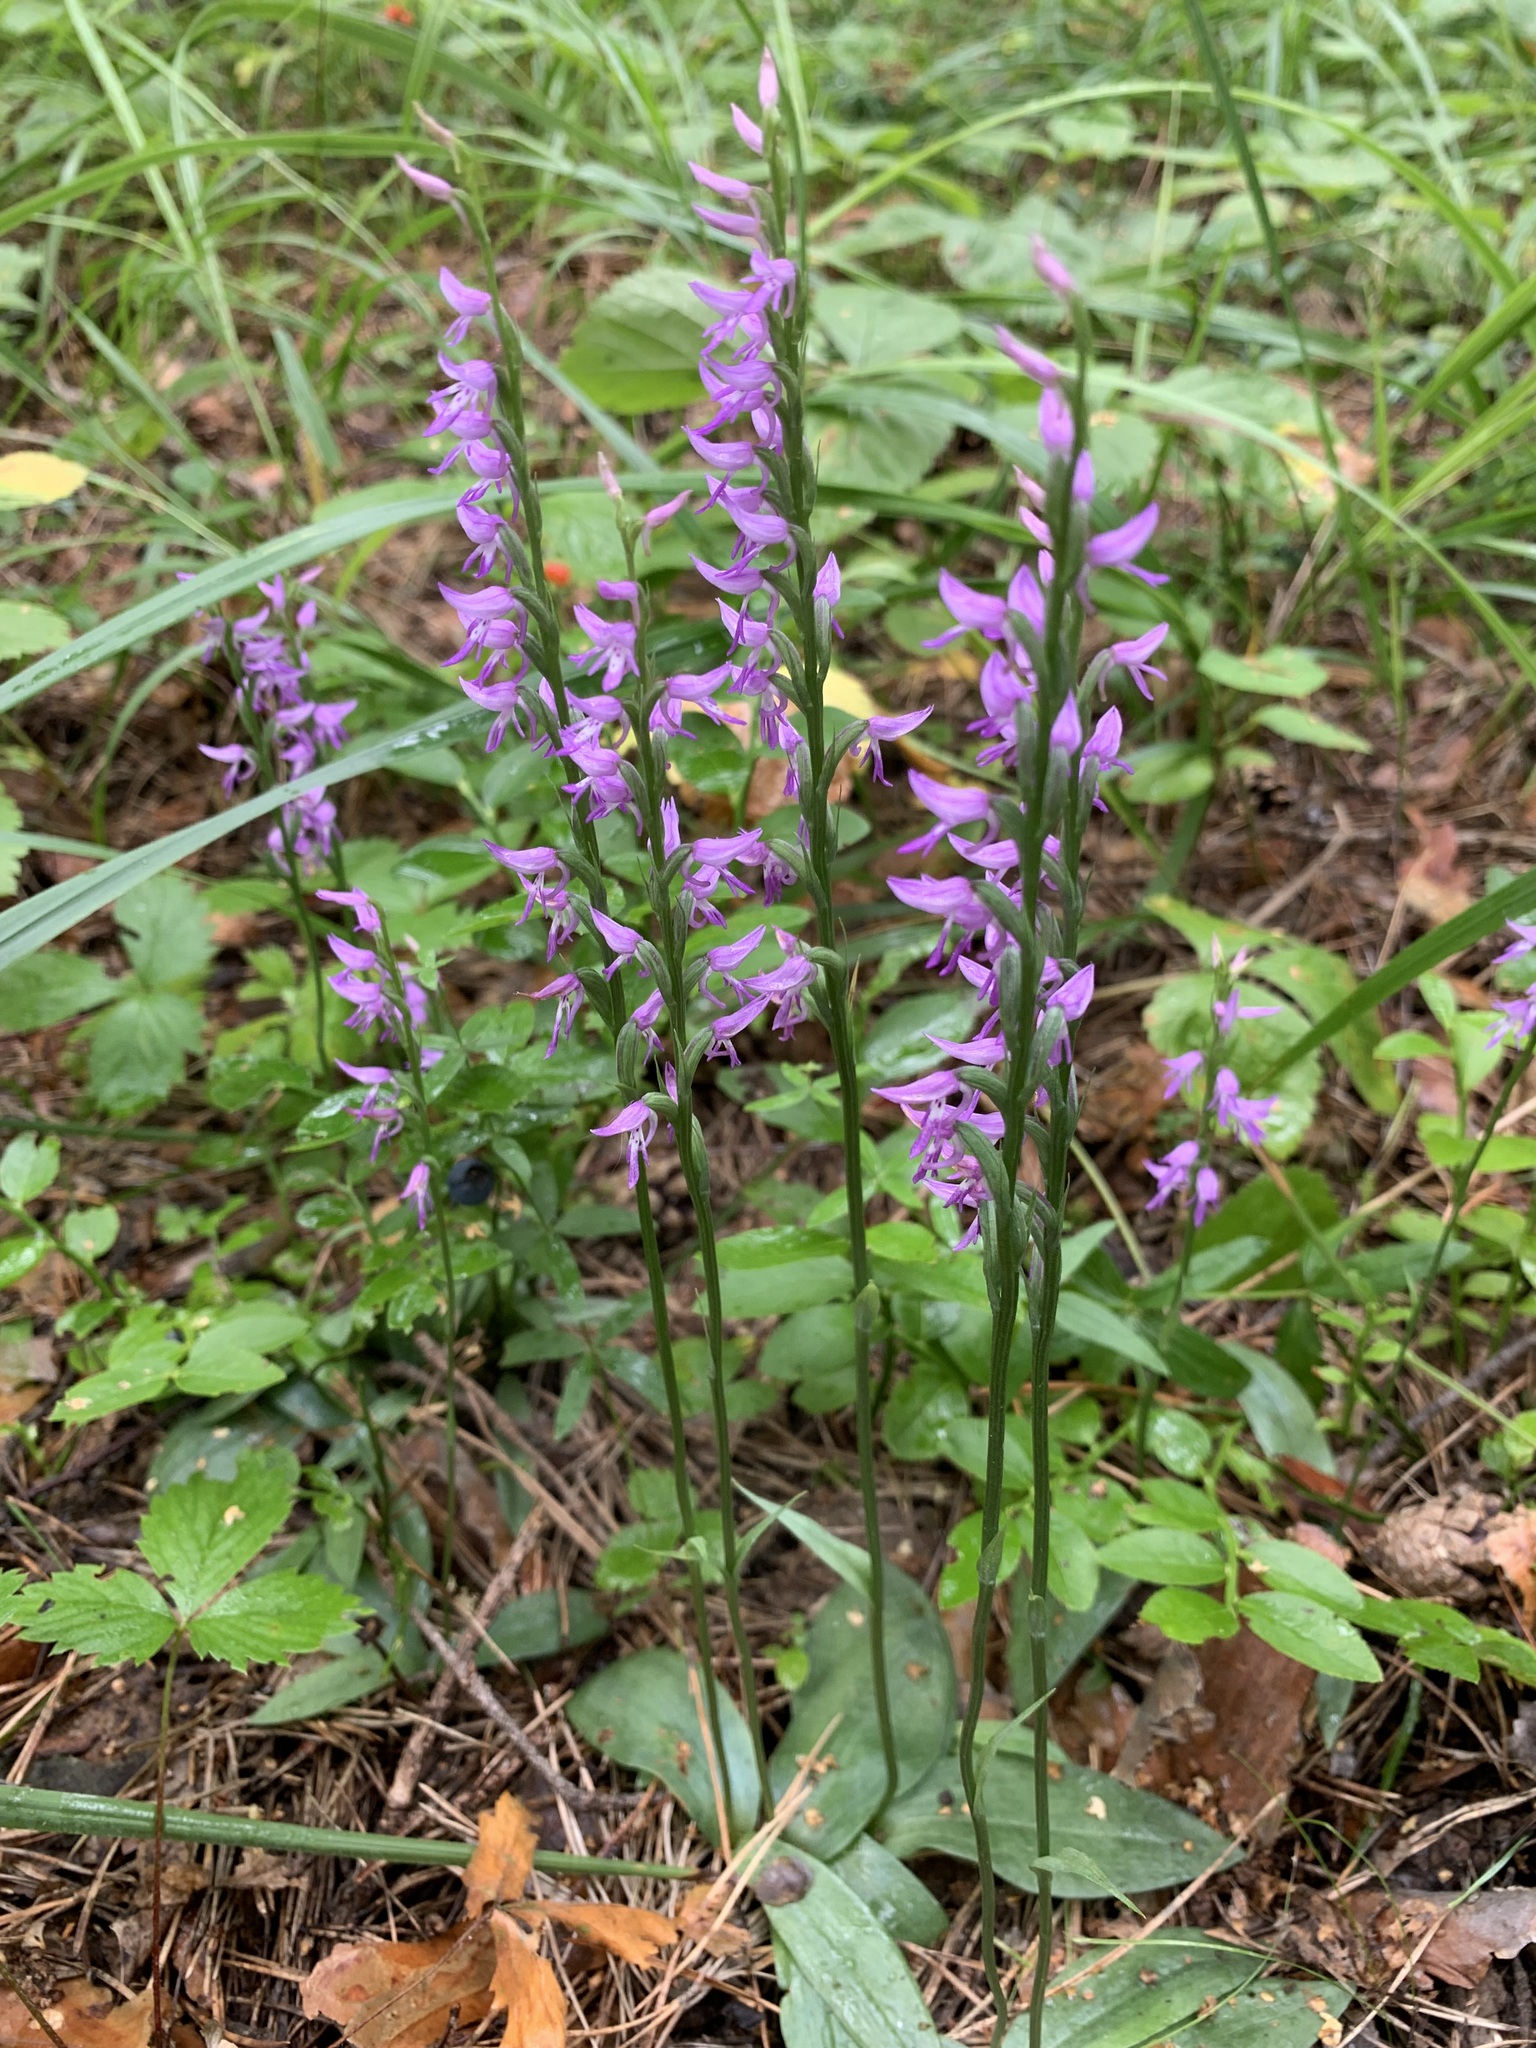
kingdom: Plantae
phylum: Tracheophyta
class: Liliopsida
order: Asparagales
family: Orchidaceae
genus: Hemipilia
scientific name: Hemipilia cucullata
